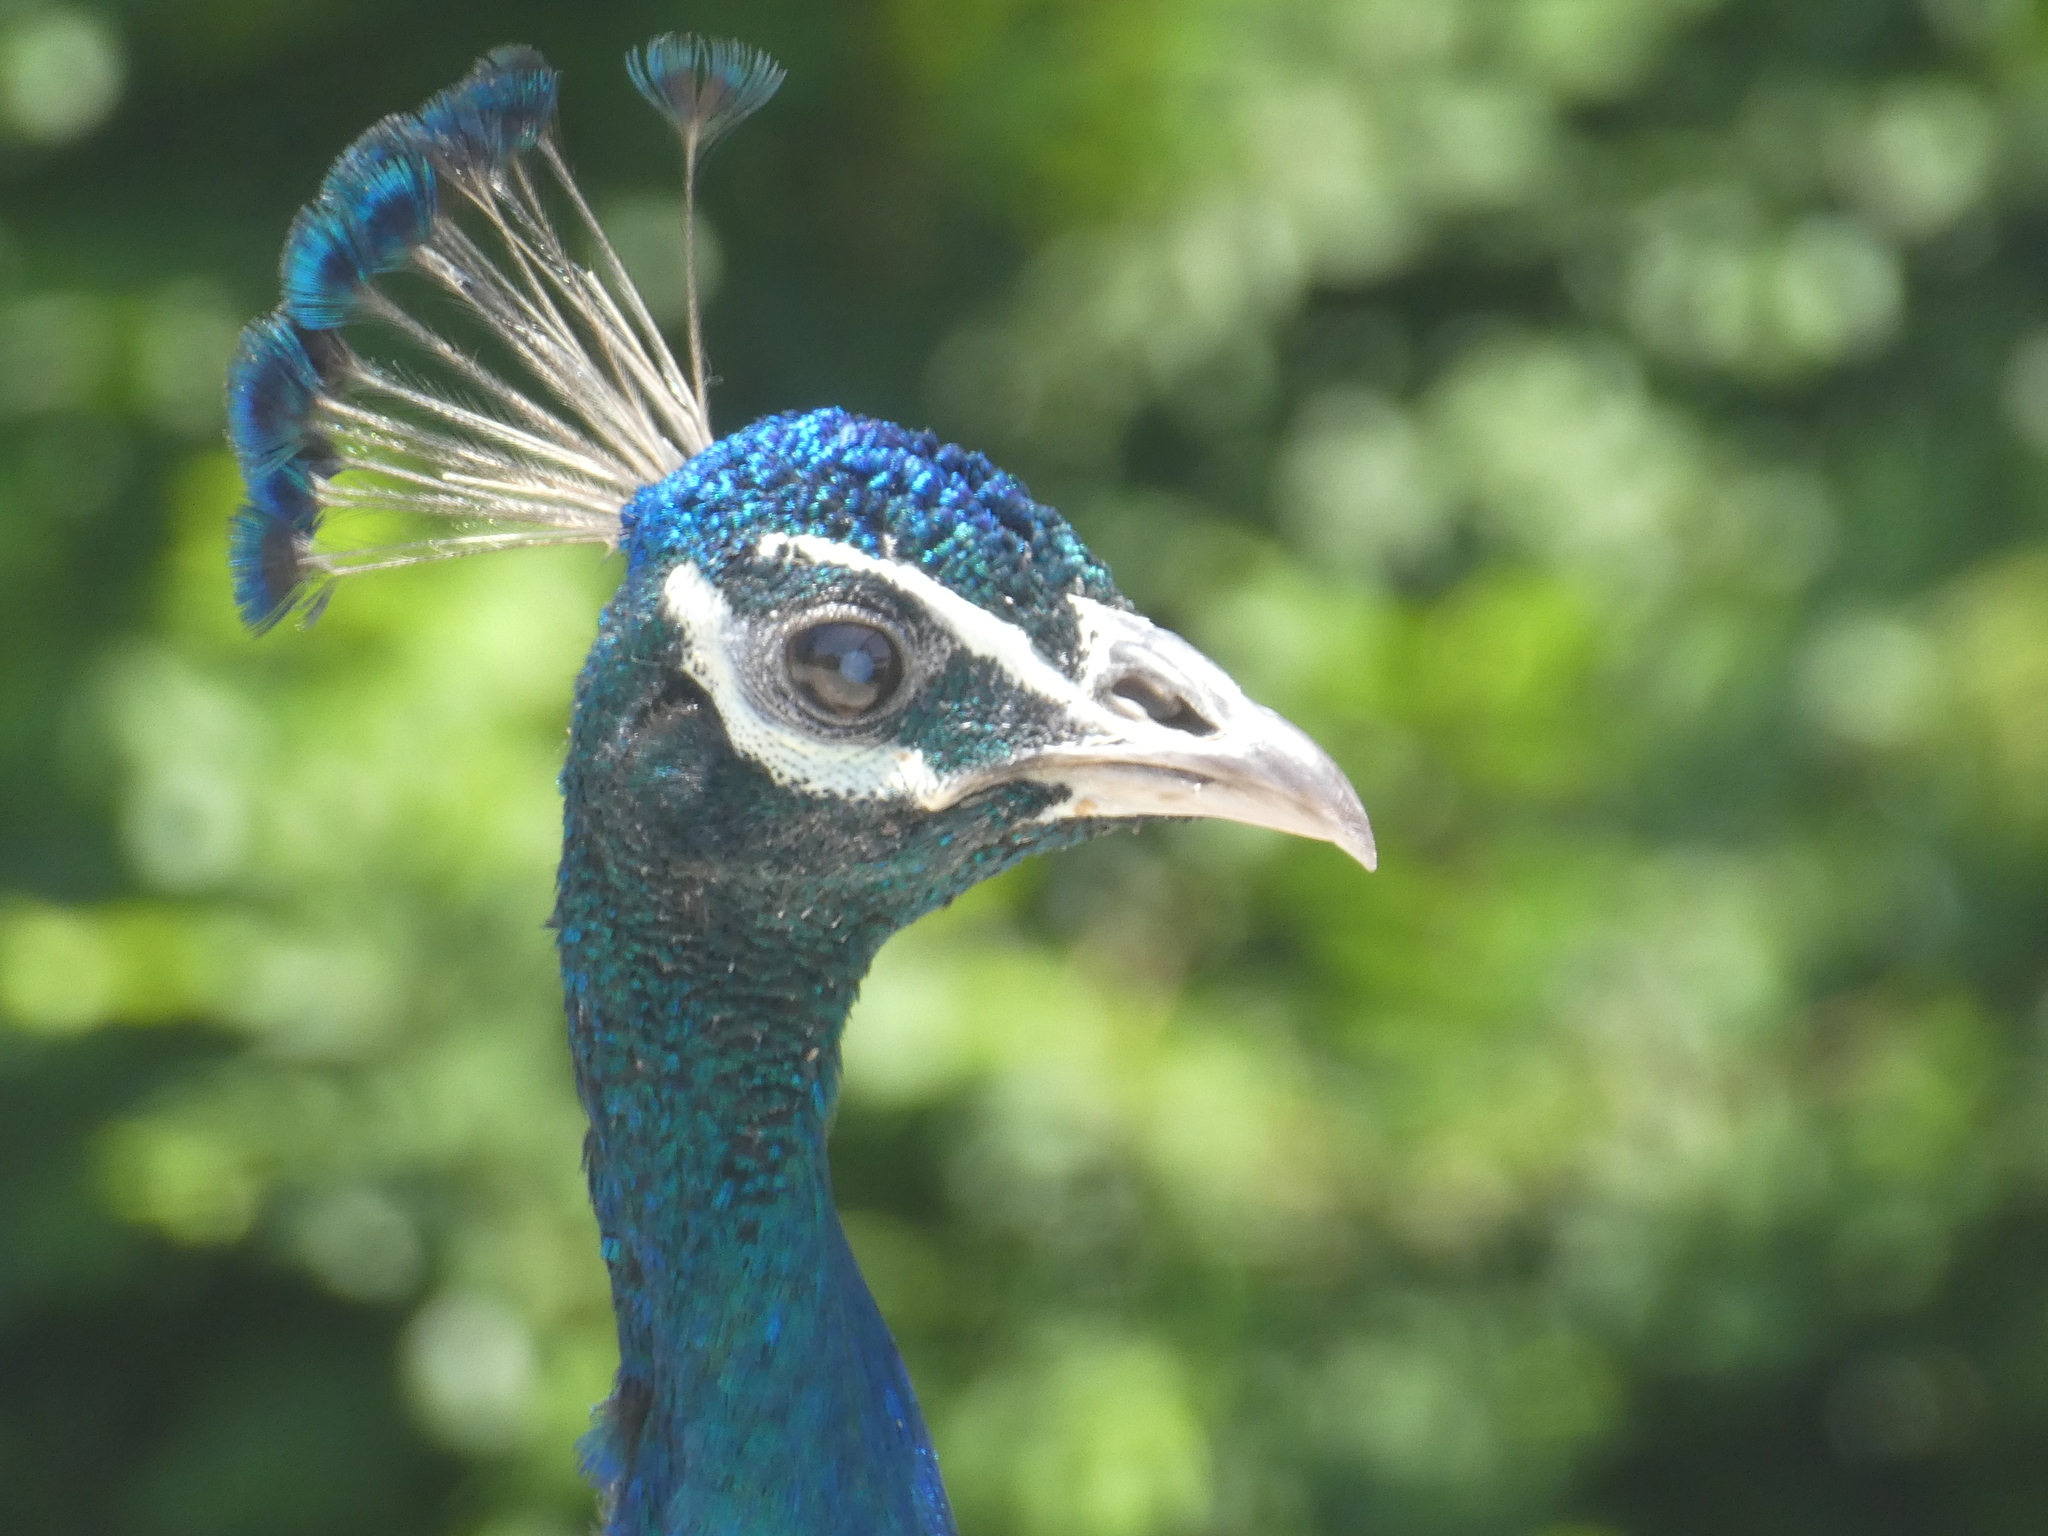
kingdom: Animalia
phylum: Chordata
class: Aves
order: Galliformes
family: Phasianidae
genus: Pavo
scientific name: Pavo cristatus
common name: Indian peafowl
